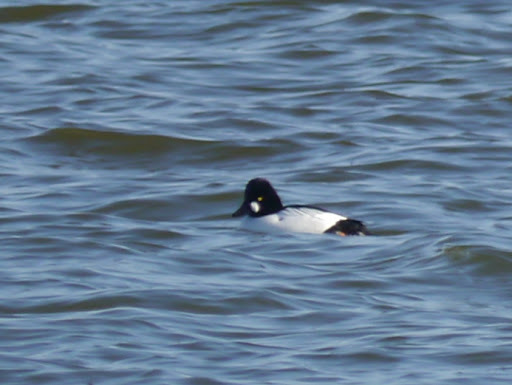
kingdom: Animalia
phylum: Chordata
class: Aves
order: Anseriformes
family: Anatidae
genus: Bucephala
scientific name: Bucephala clangula
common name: Common goldeneye
